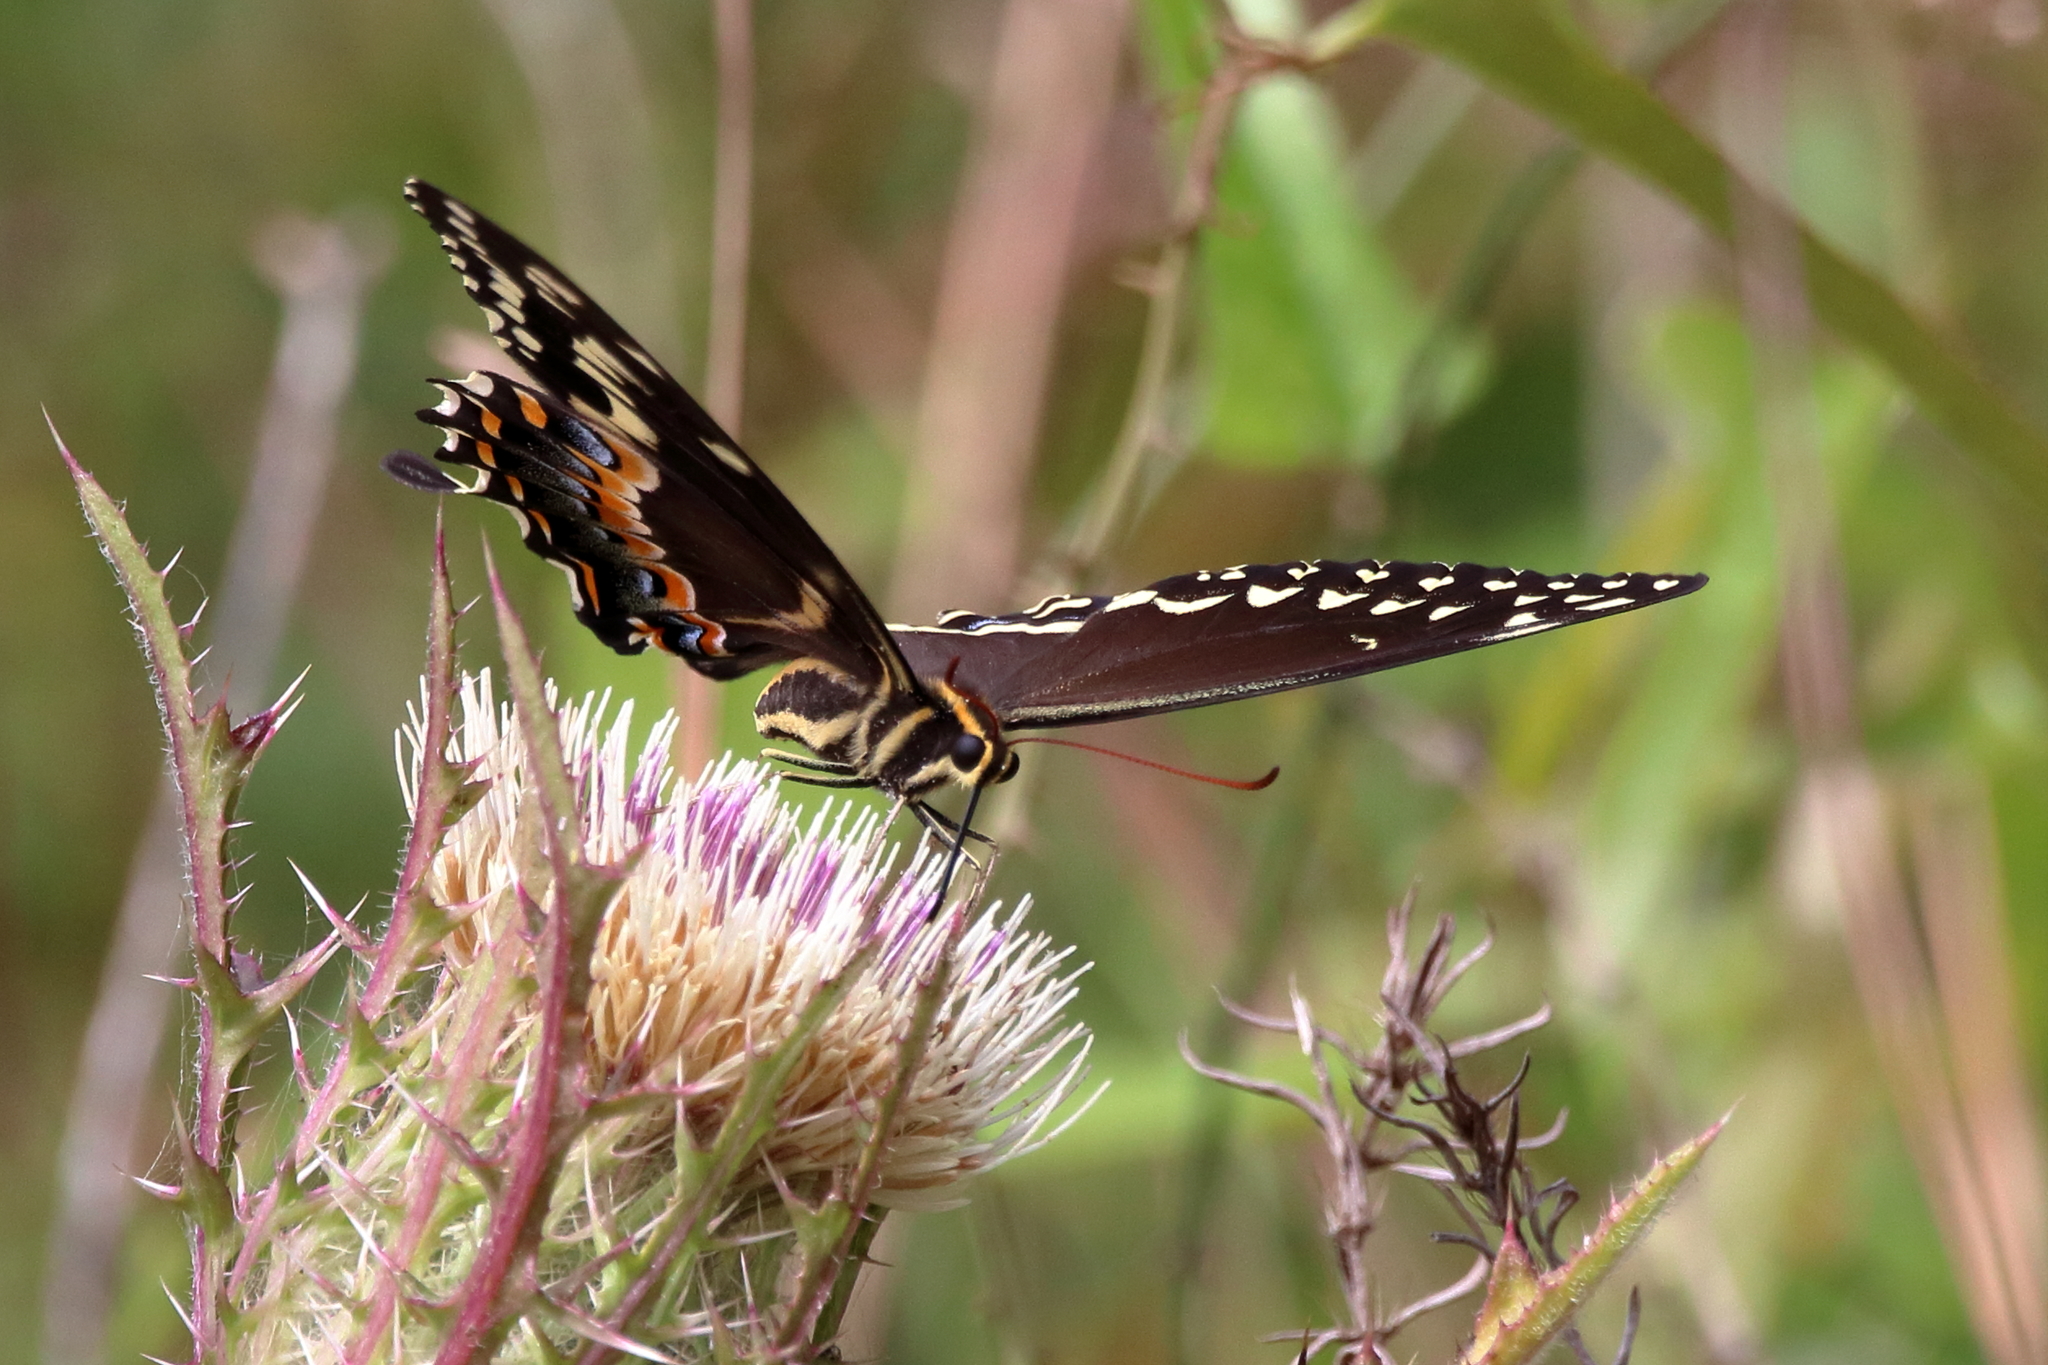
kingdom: Animalia
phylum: Arthropoda
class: Insecta
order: Lepidoptera
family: Papilionidae
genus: Papilio
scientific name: Papilio palamedes
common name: Palamedes swallowtail
